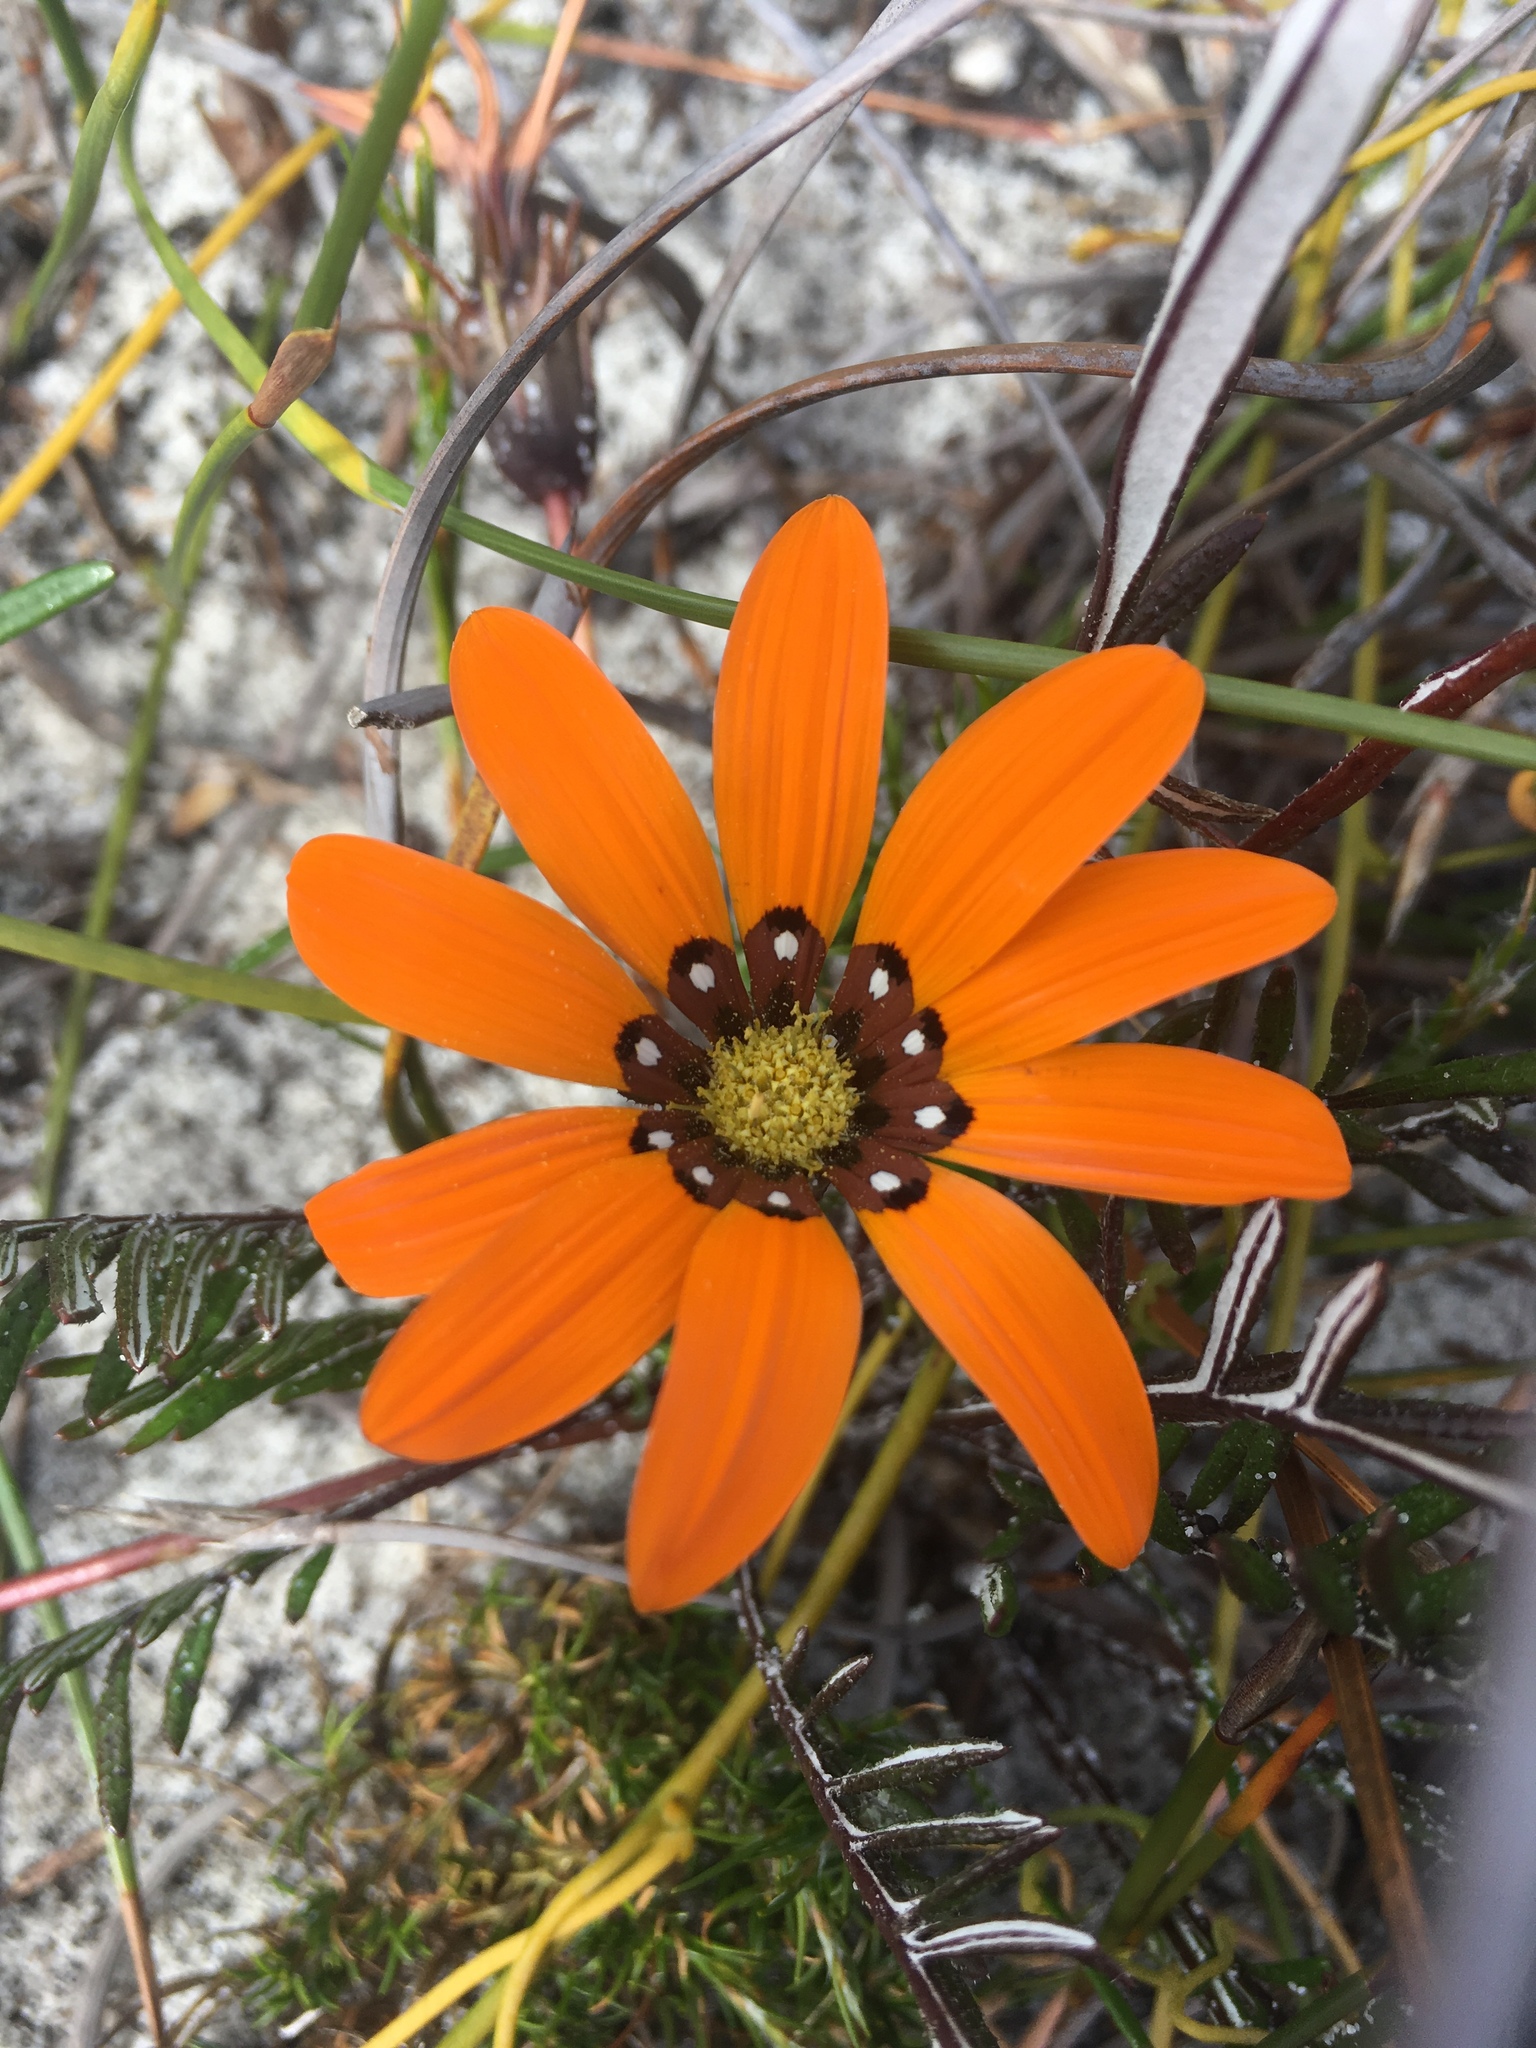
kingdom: Plantae
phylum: Tracheophyta
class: Magnoliopsida
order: Asterales
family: Asteraceae
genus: Gazania
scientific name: Gazania pectinata
